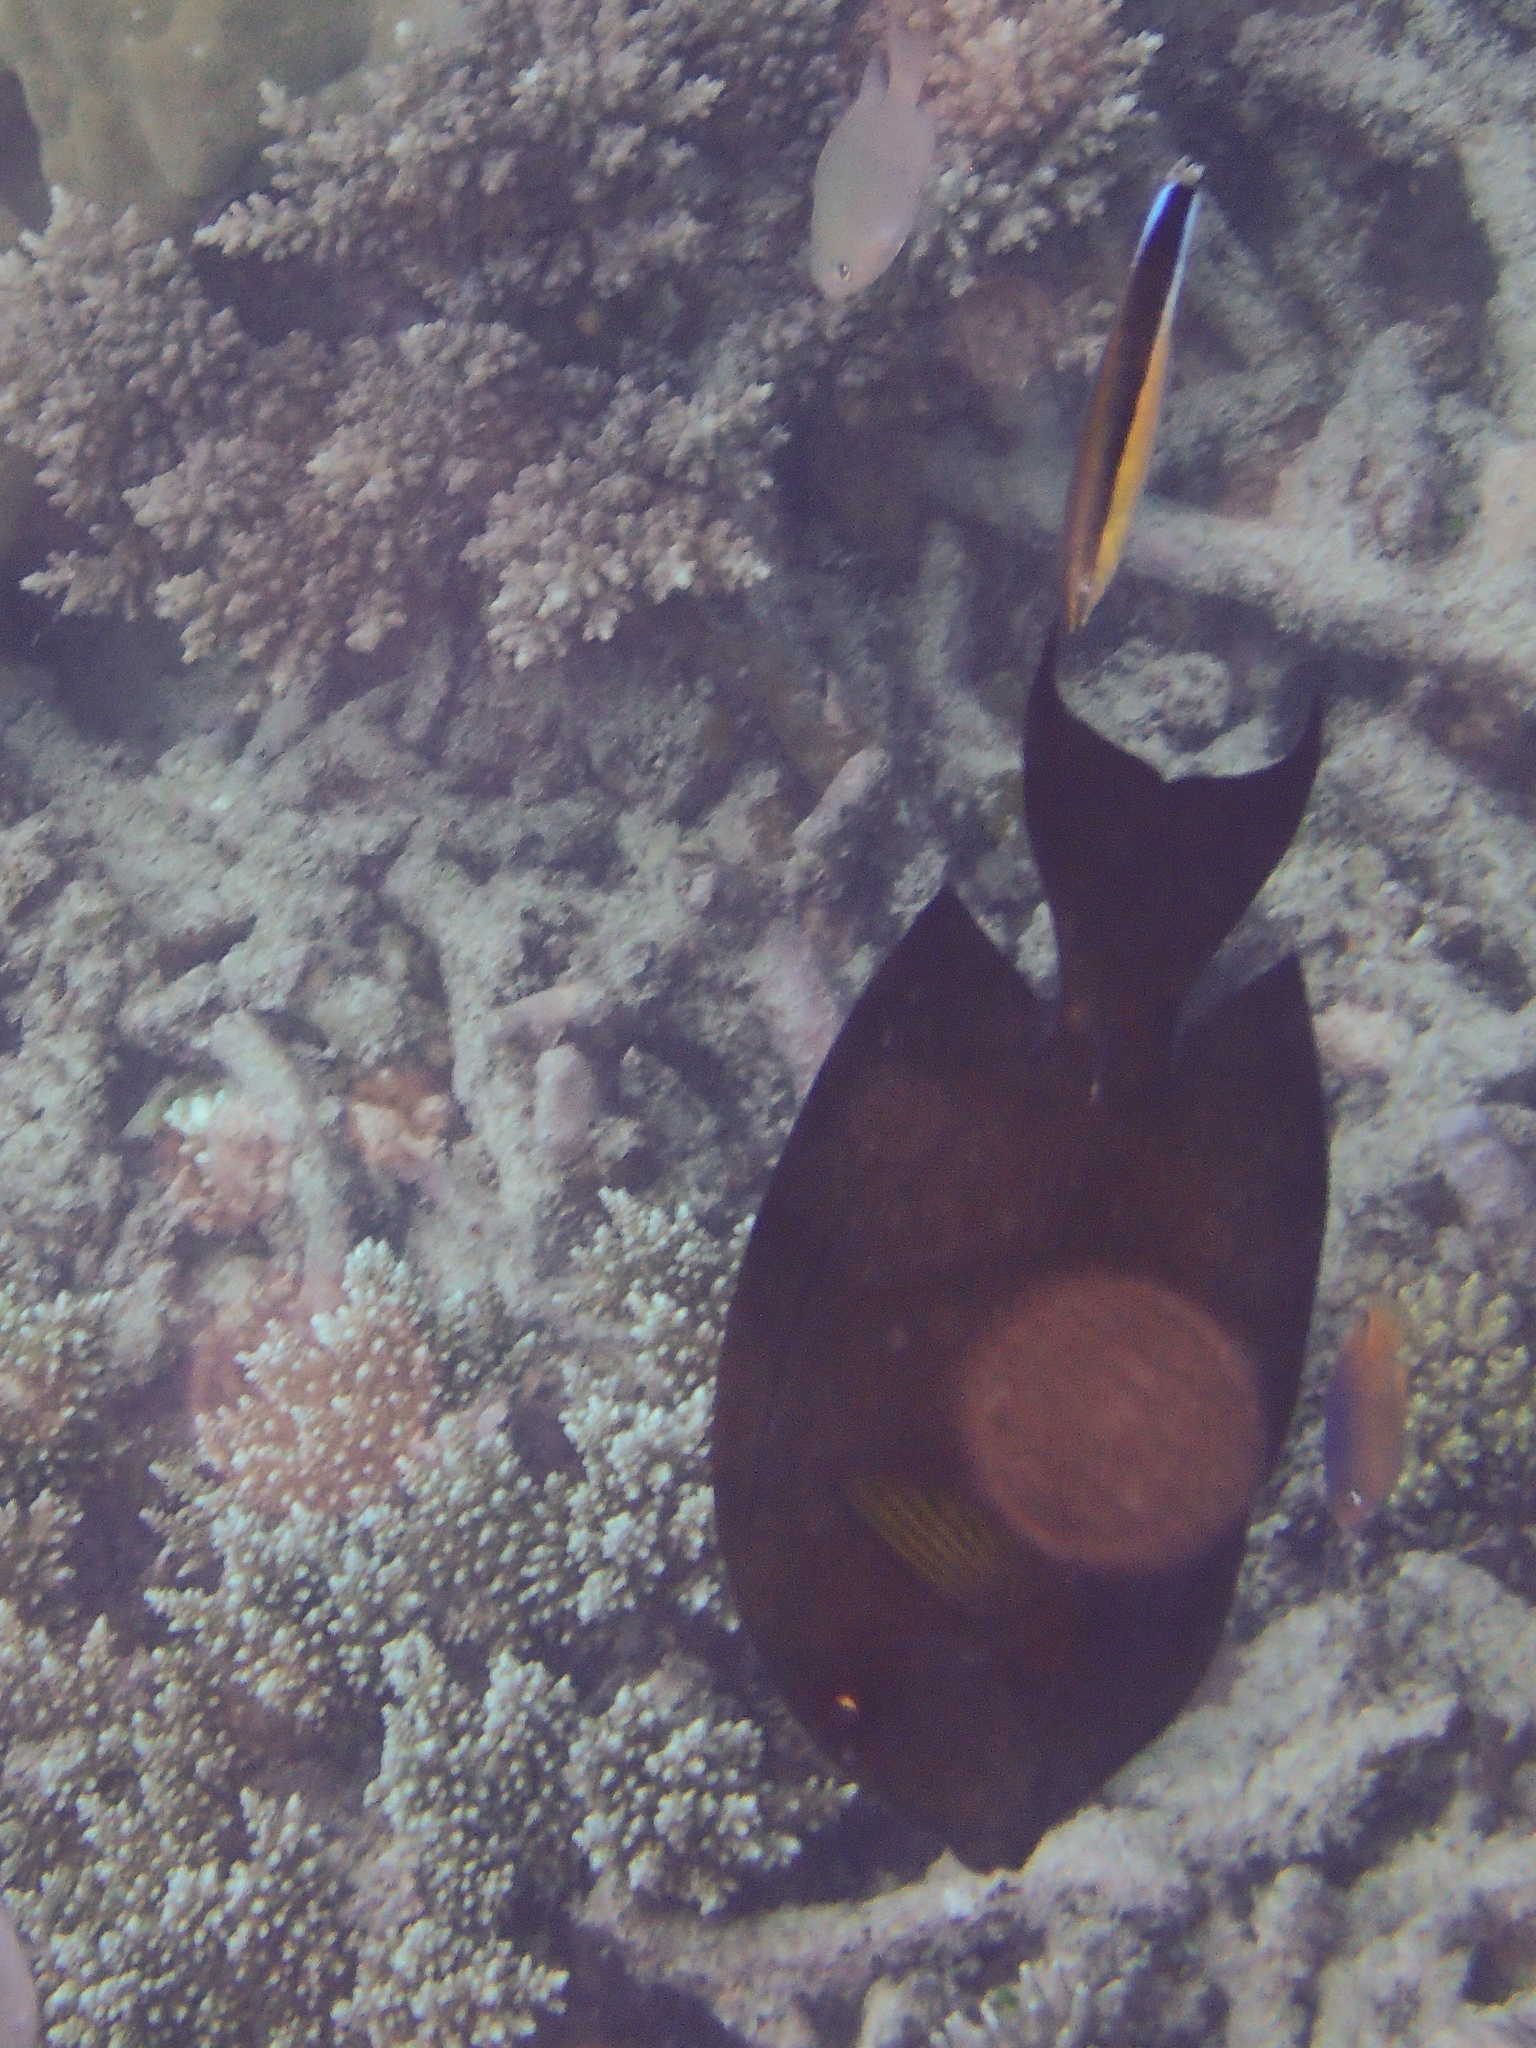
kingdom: Animalia
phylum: Chordata
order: Perciformes
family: Acanthuridae
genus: Ctenochaetus
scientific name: Ctenochaetus striatus
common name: Bristle-toothed surgeonfish
